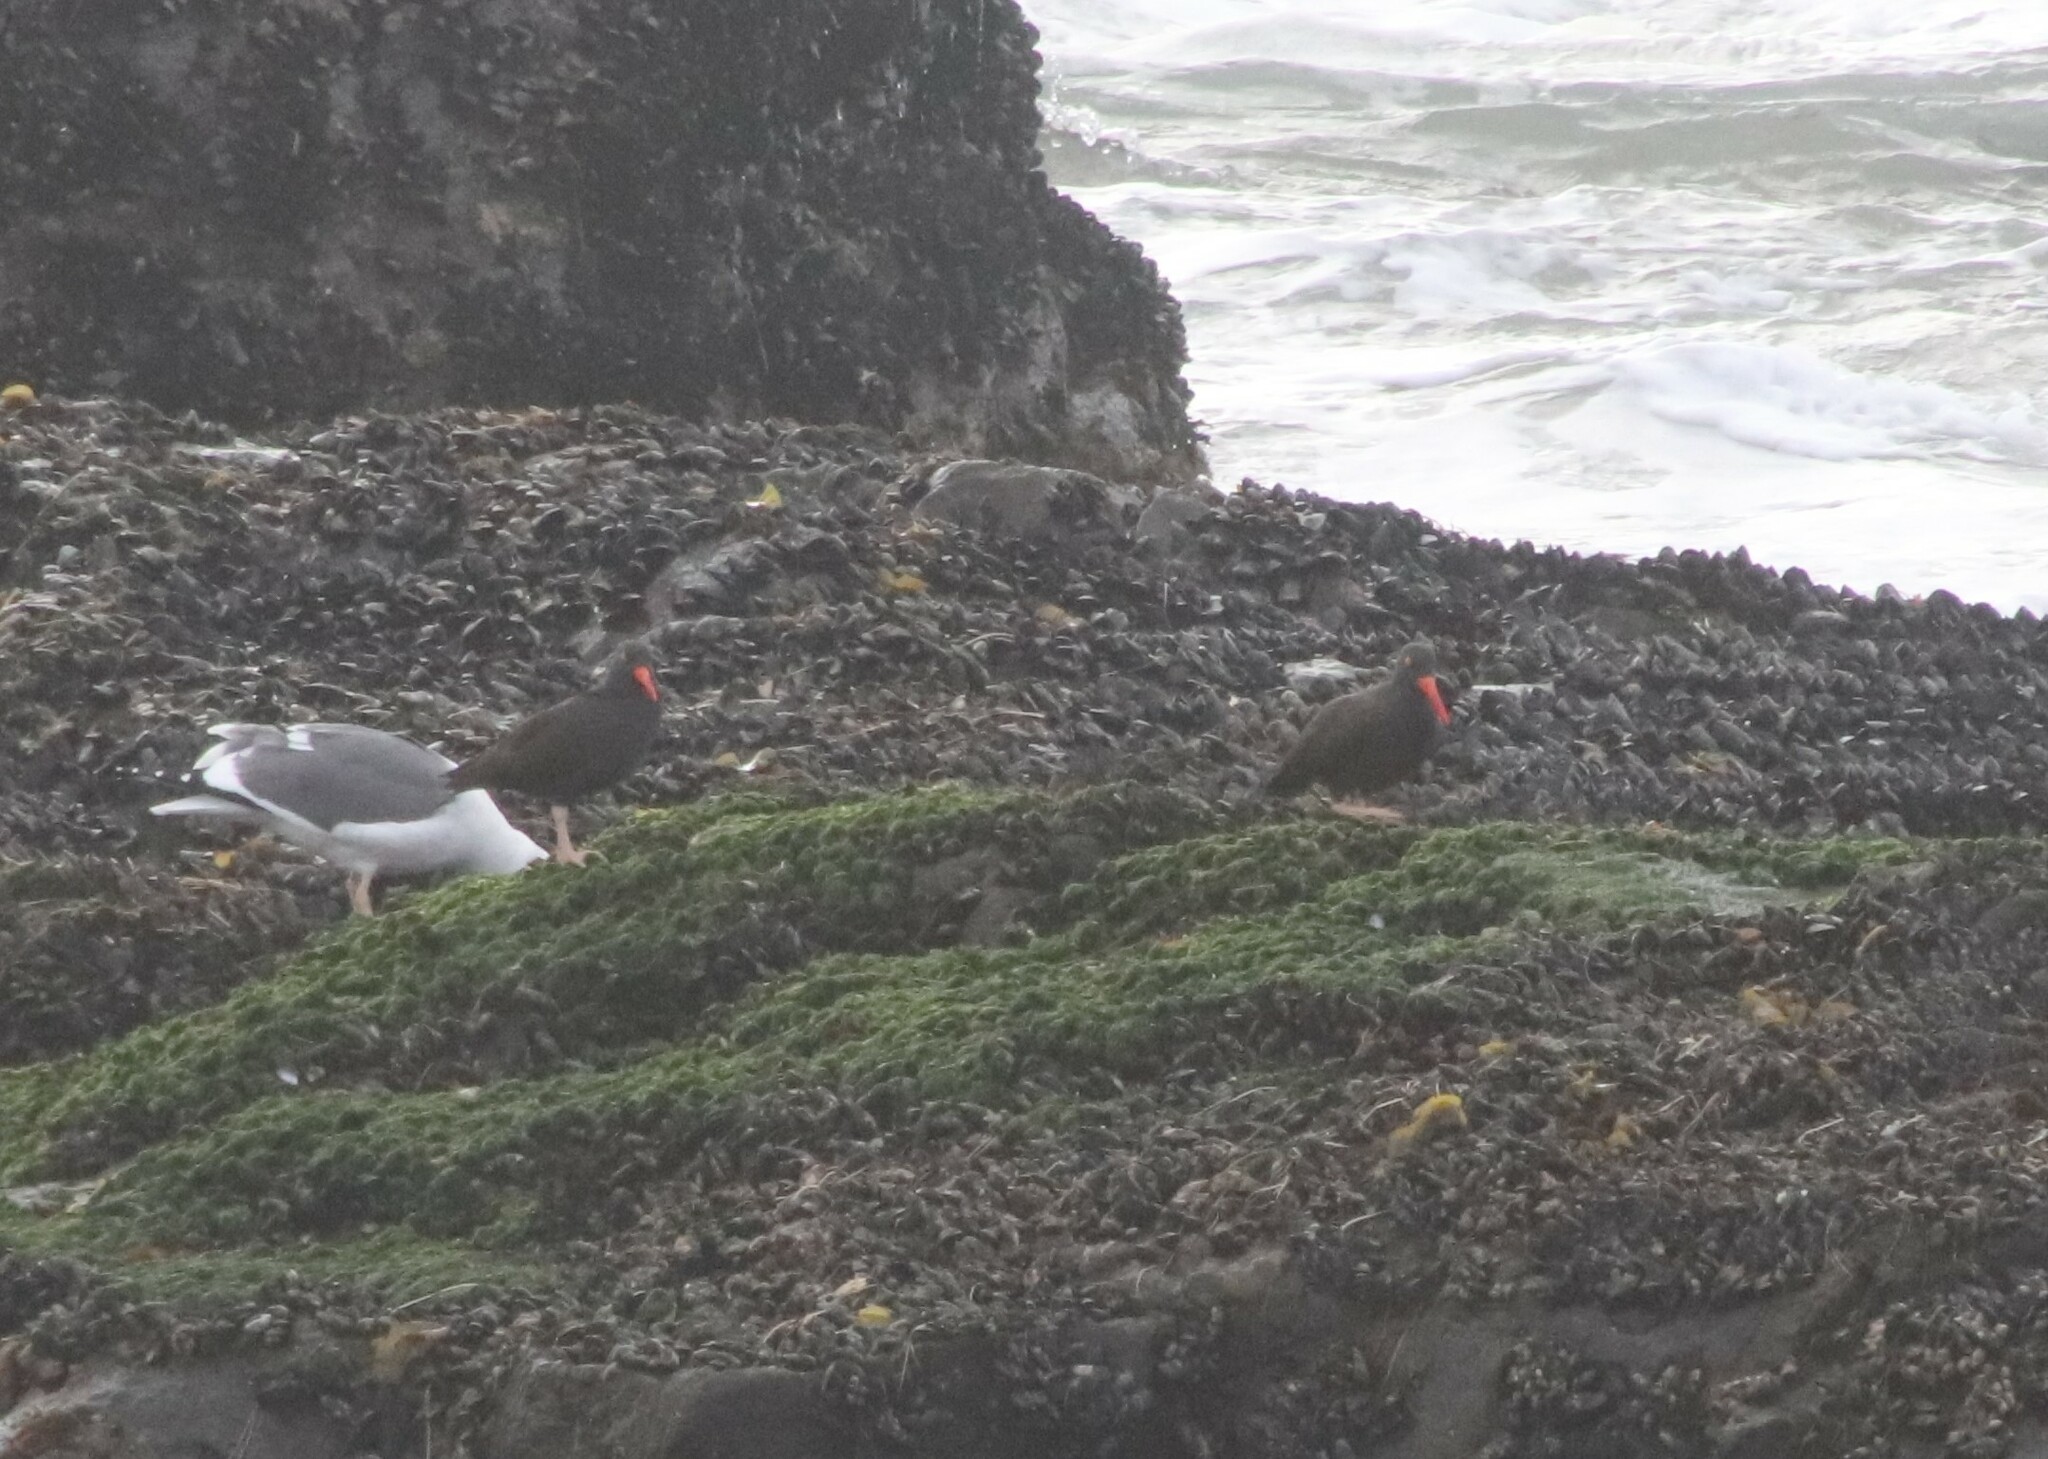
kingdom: Animalia
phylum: Chordata
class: Aves
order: Charadriiformes
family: Haematopodidae
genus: Haematopus
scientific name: Haematopus bachmani
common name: Black oystercatcher
